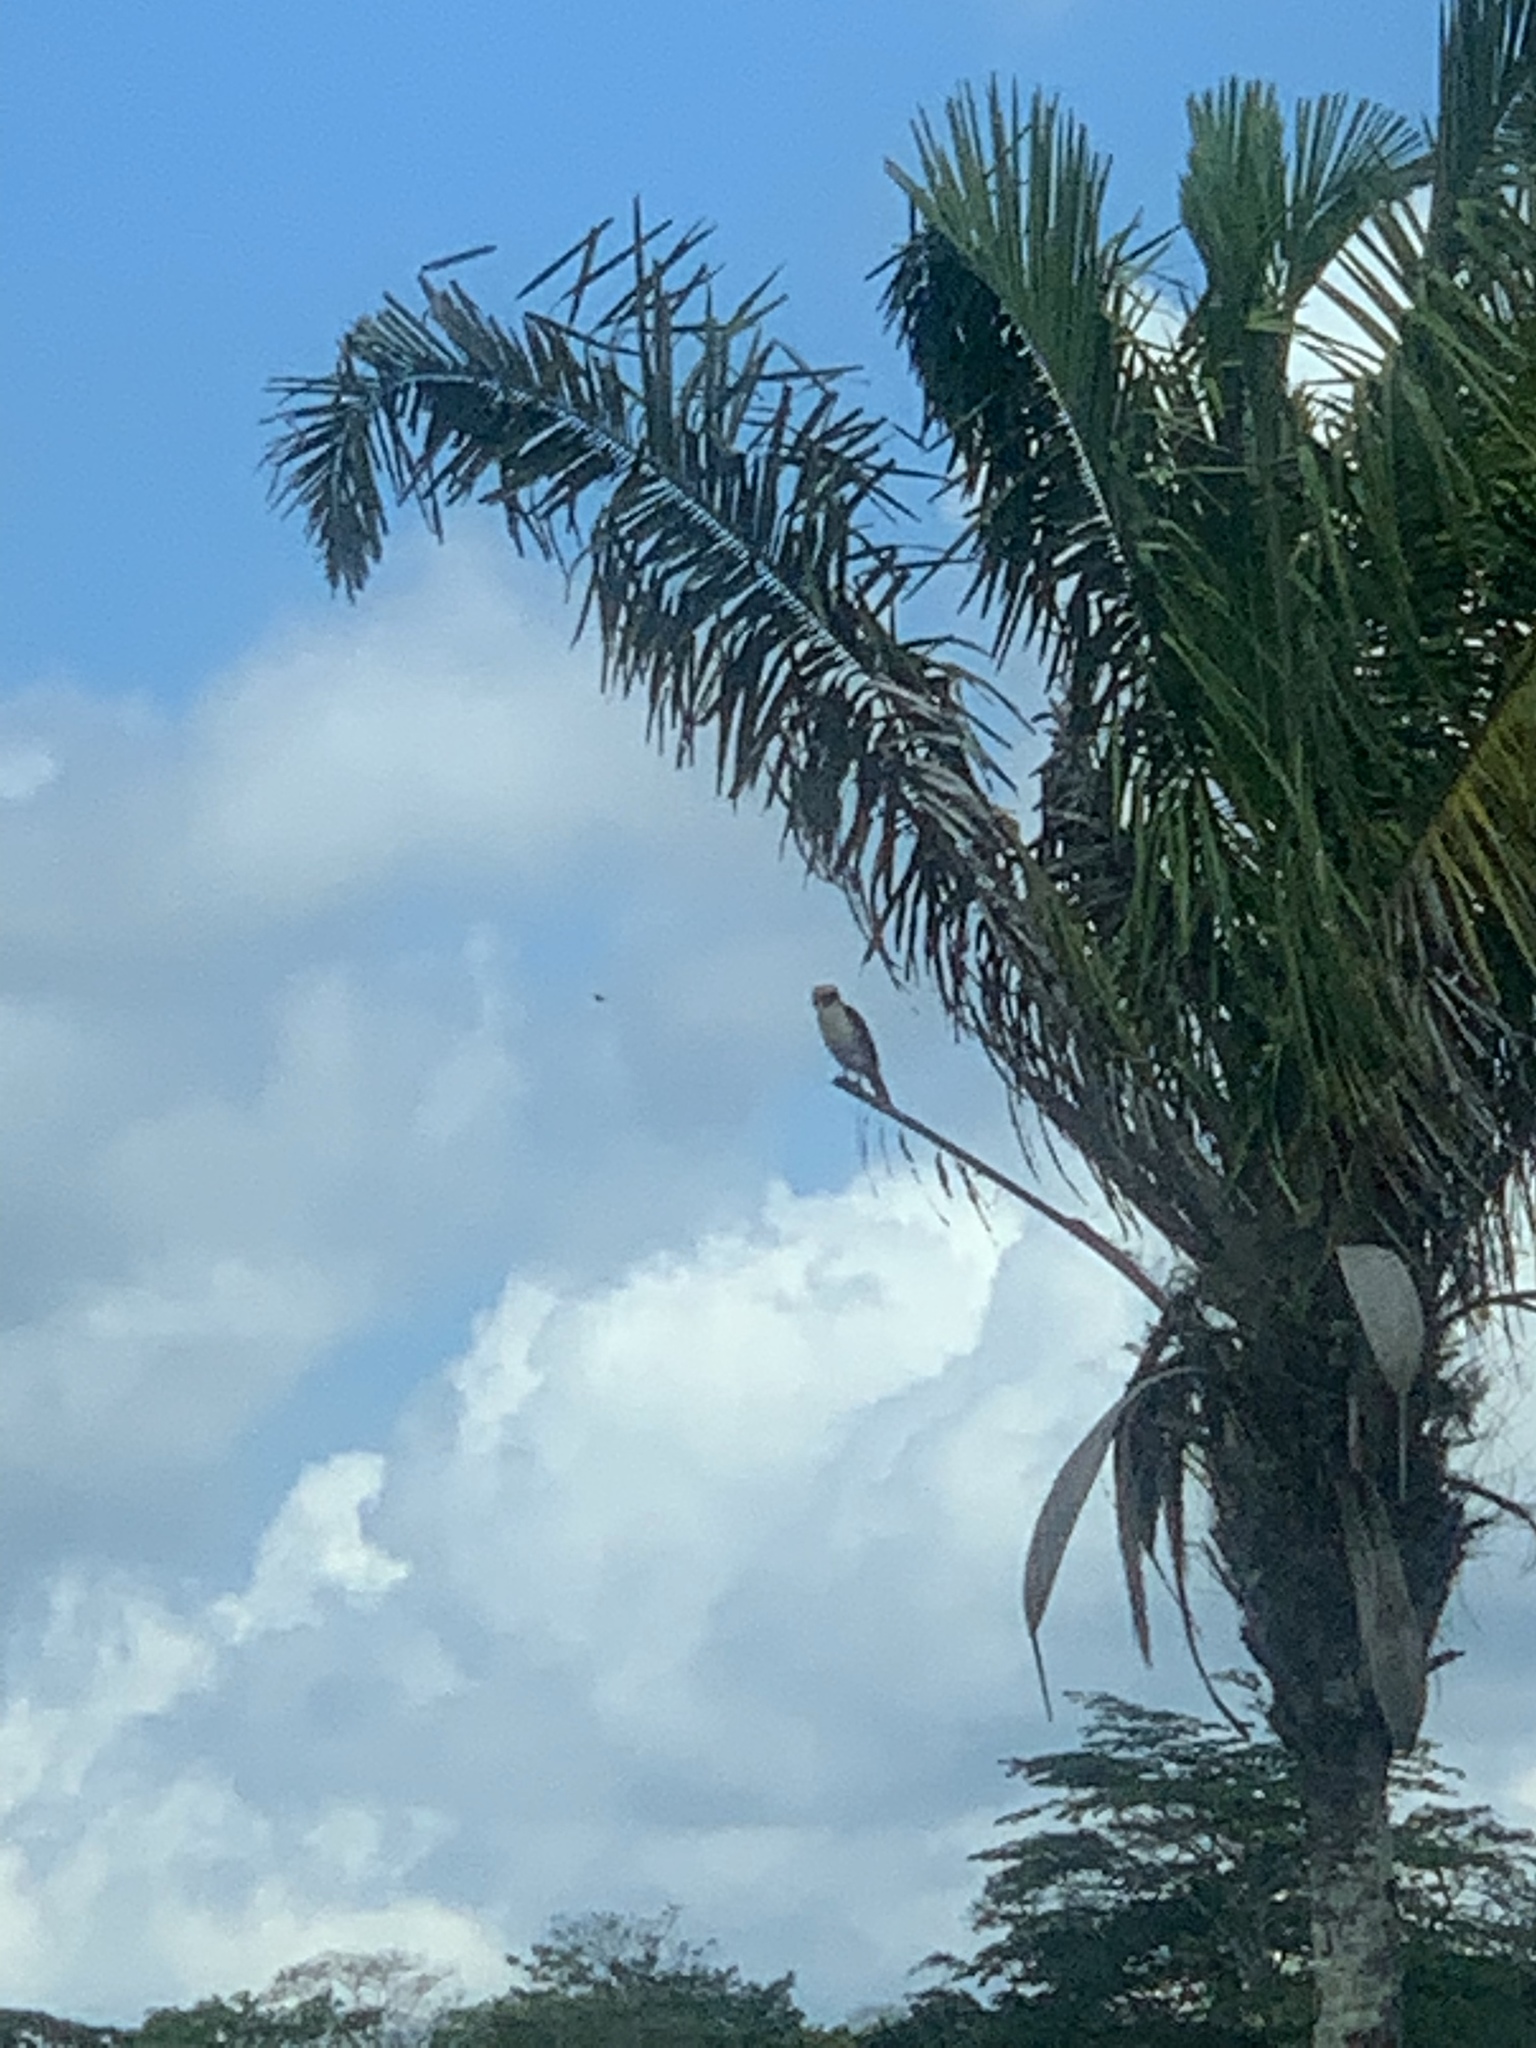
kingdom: Animalia
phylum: Chordata
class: Aves
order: Falconiformes
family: Falconidae
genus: Herpetotheres
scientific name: Herpetotheres cachinnans
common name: Laughing falcon
